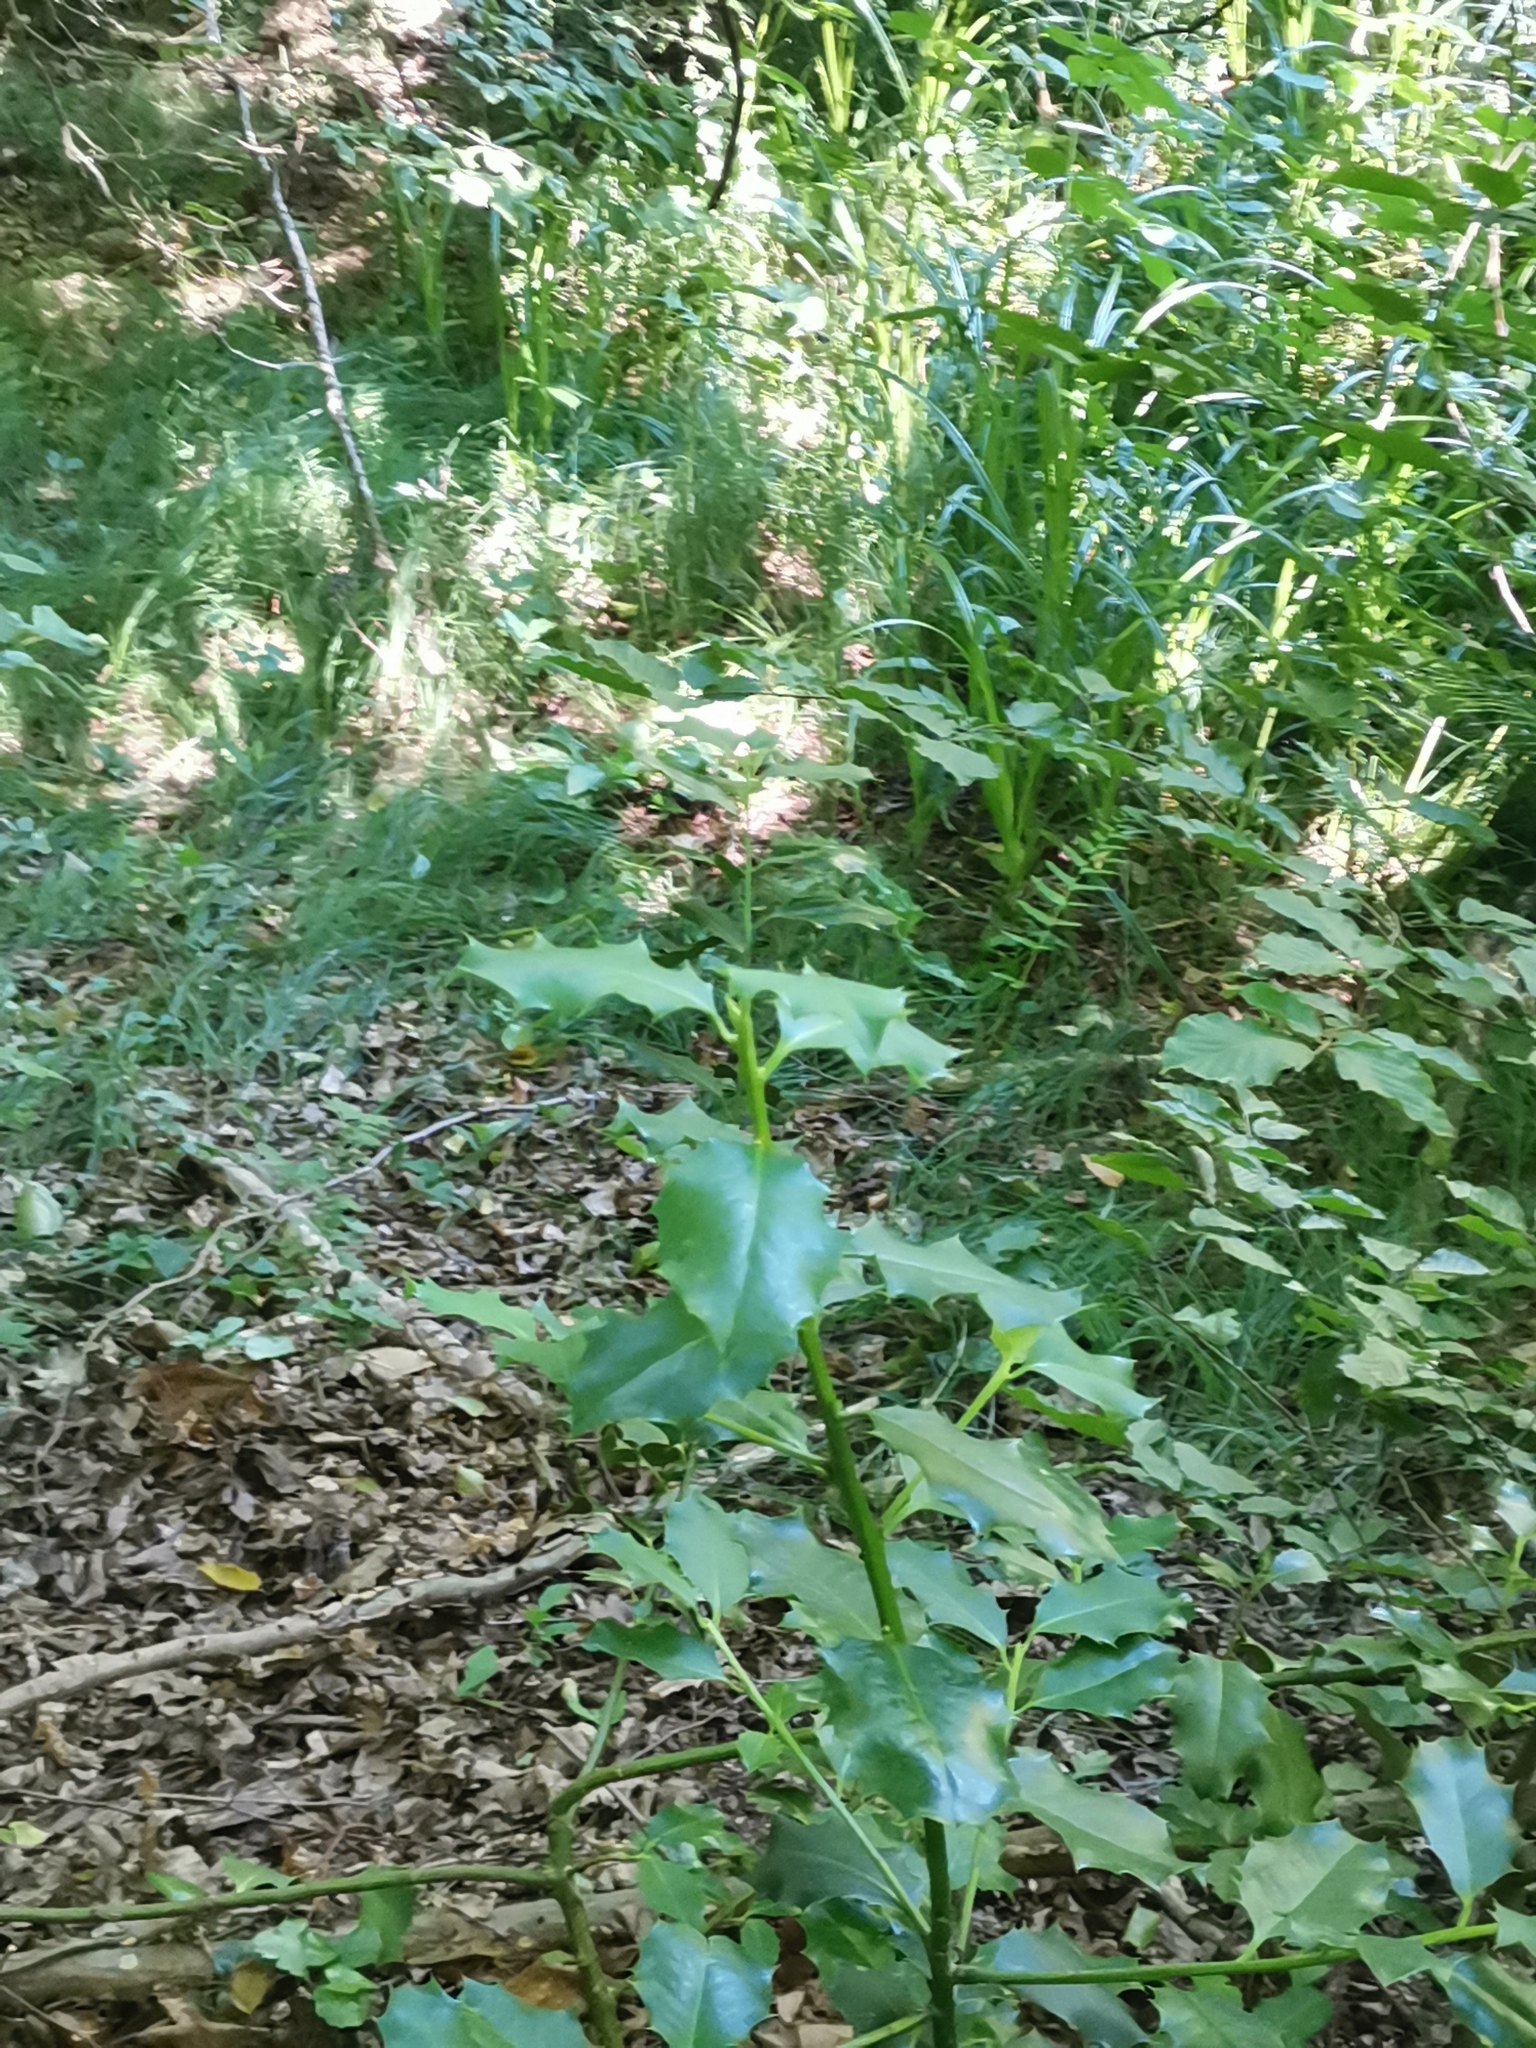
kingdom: Plantae
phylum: Tracheophyta
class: Magnoliopsida
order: Aquifoliales
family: Aquifoliaceae
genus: Ilex
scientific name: Ilex aquifolium
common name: English holly
